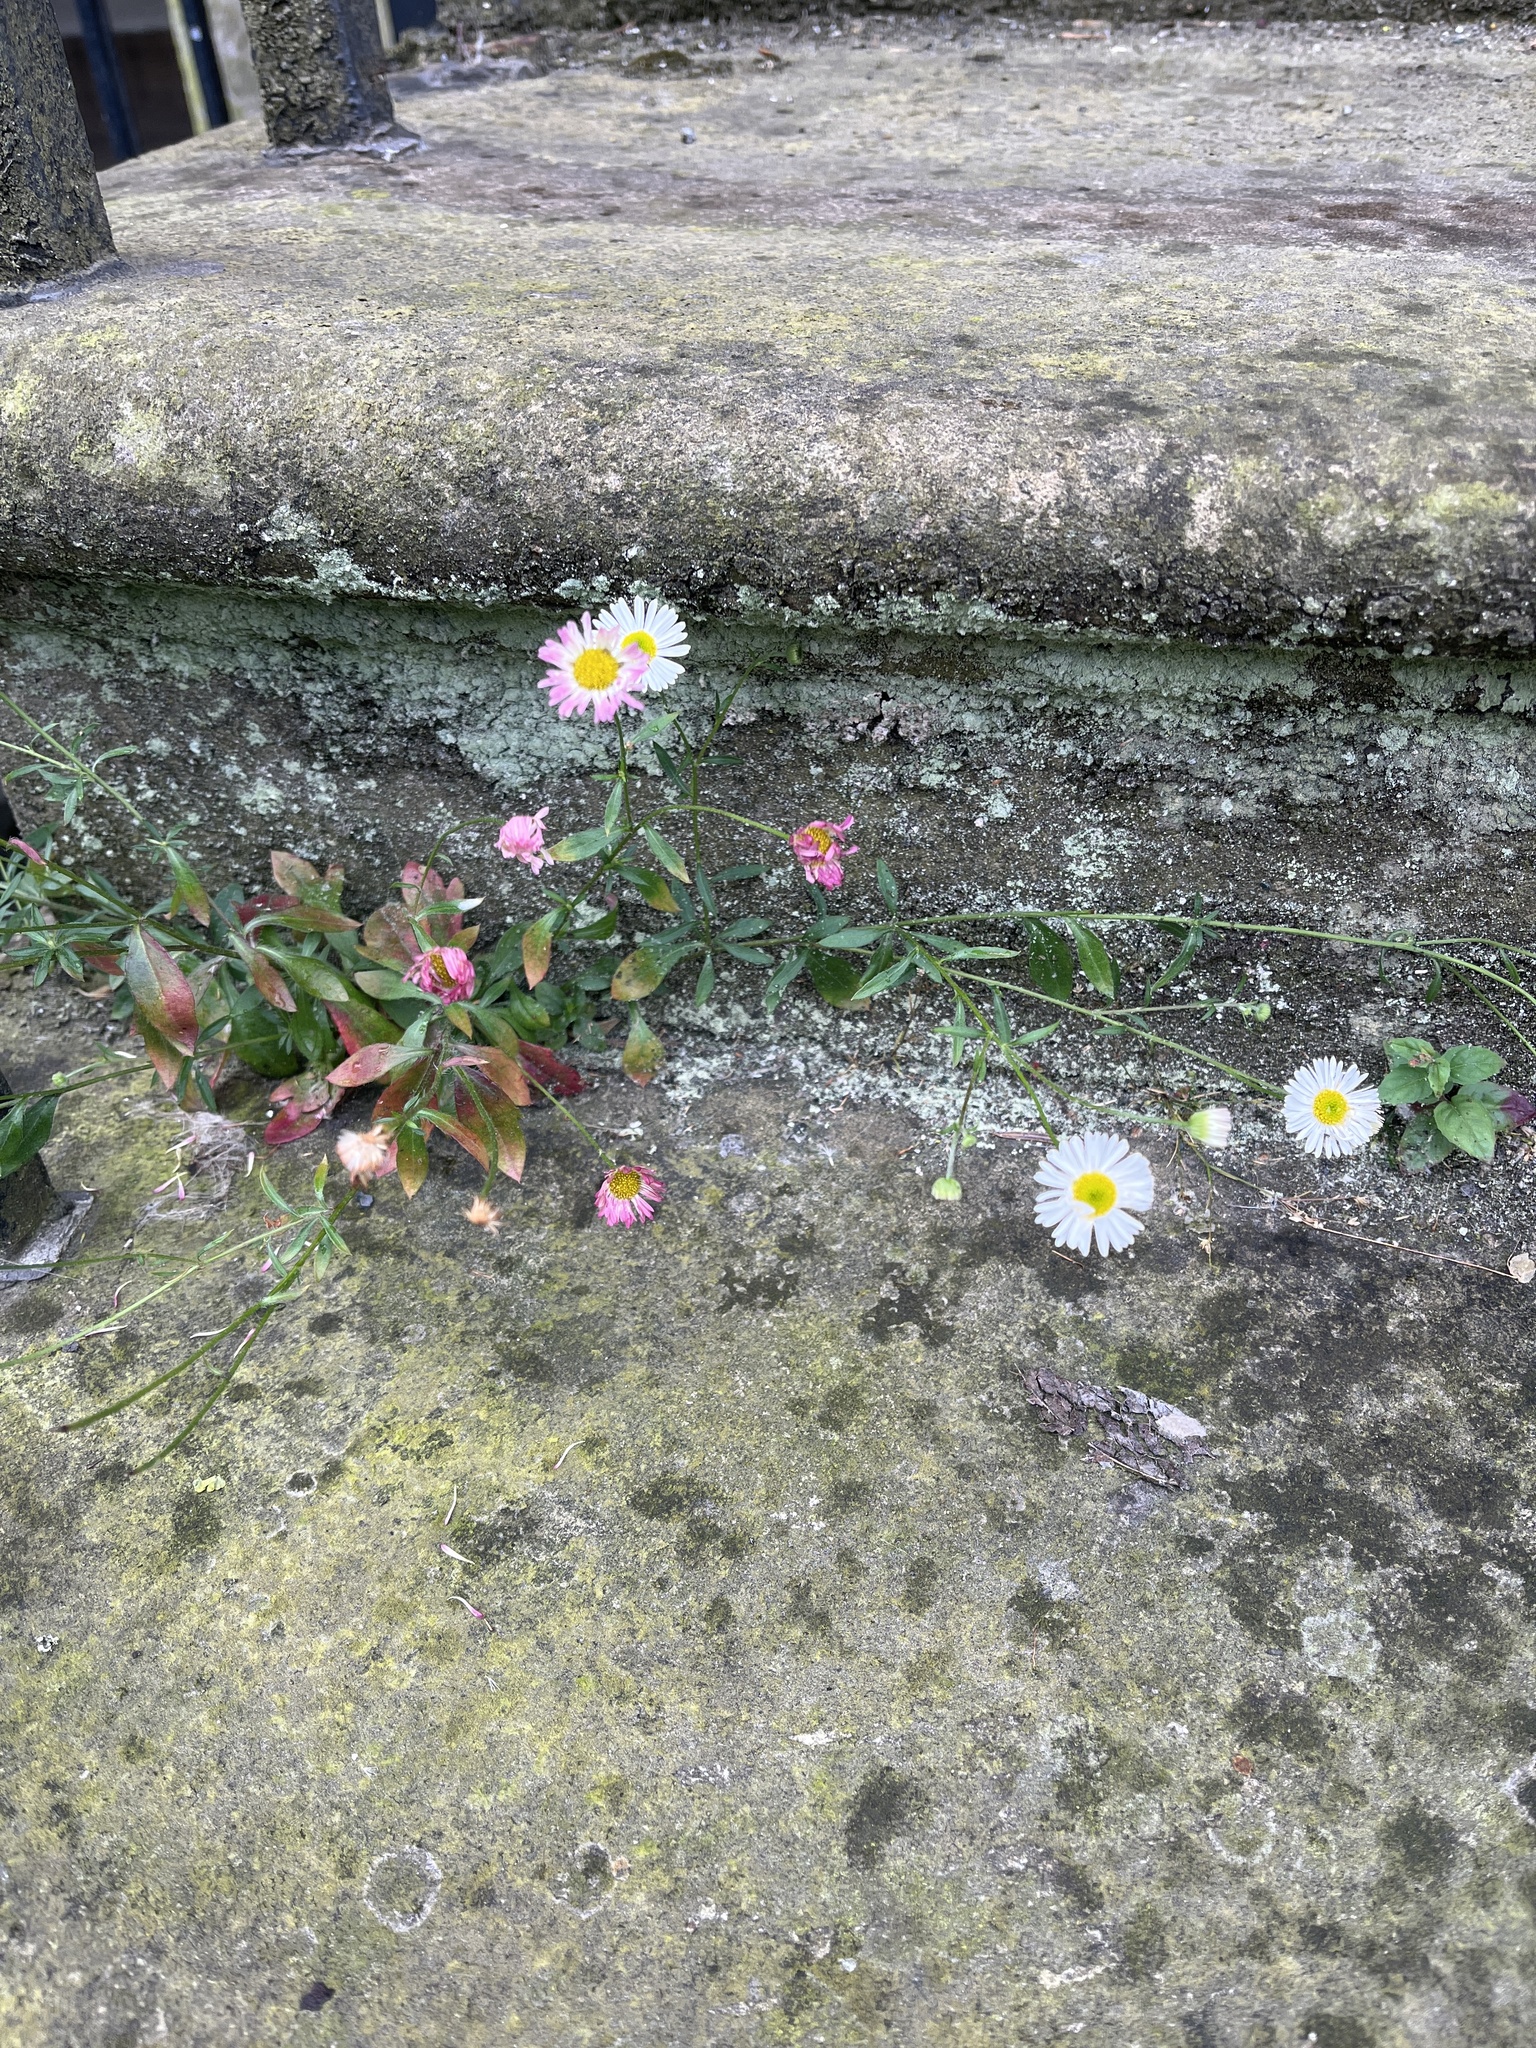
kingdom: Plantae
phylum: Tracheophyta
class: Magnoliopsida
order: Asterales
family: Asteraceae
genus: Erigeron
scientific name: Erigeron karvinskianus
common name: Mexican fleabane
